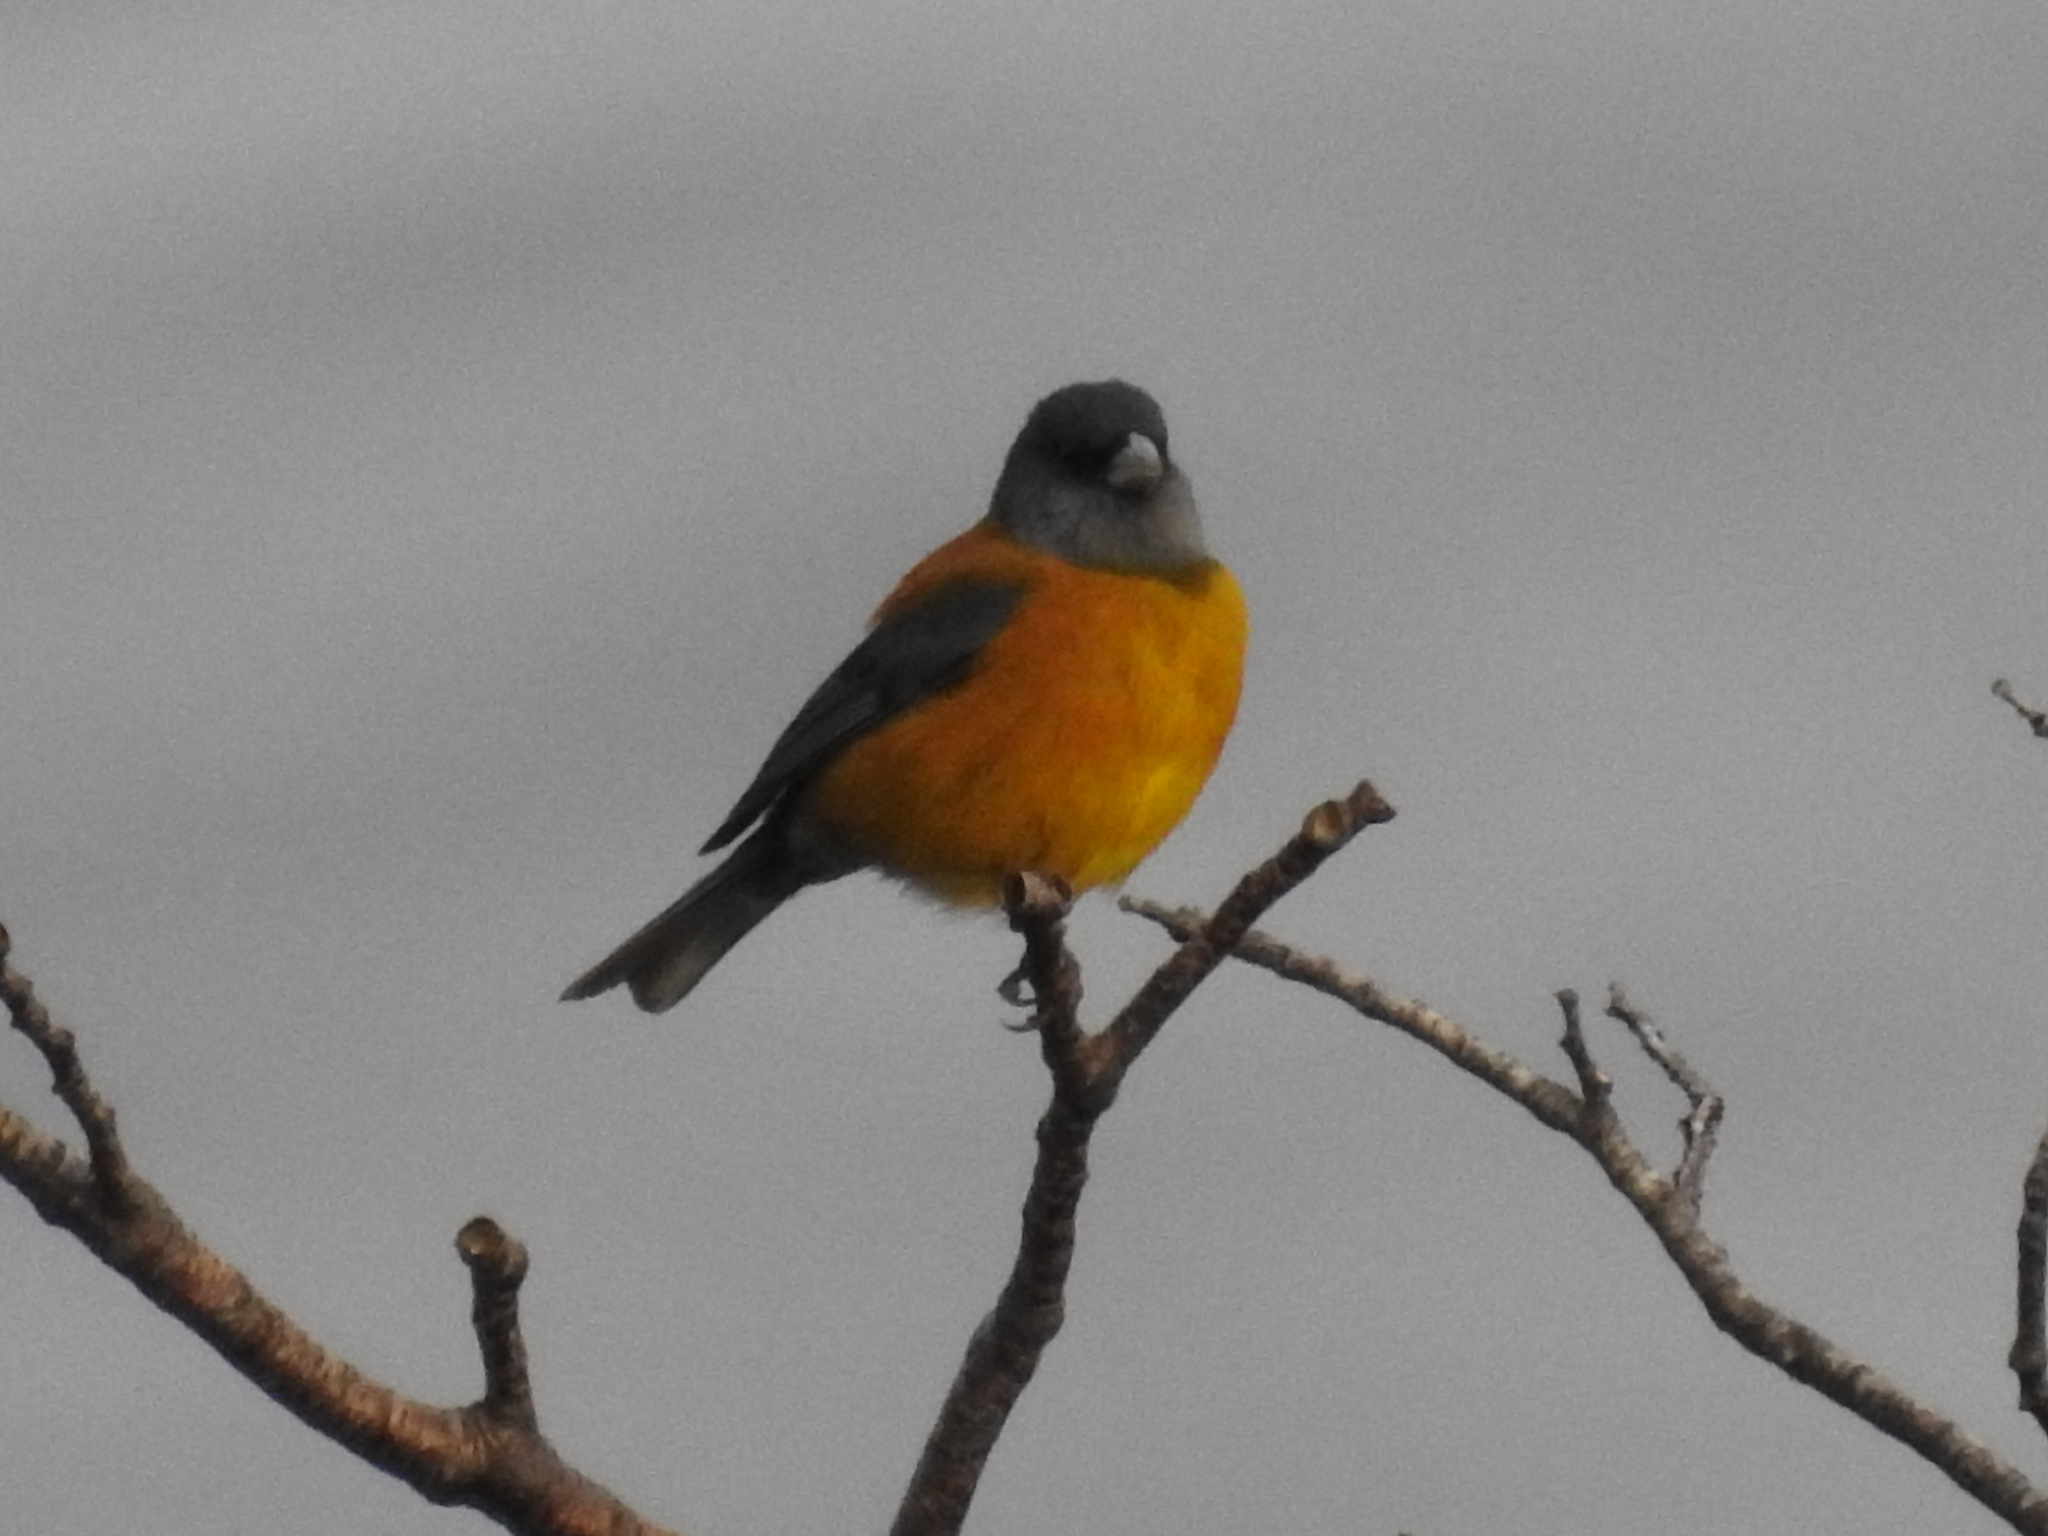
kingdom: Animalia
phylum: Chordata
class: Aves
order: Passeriformes
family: Thraupidae
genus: Phrygilus
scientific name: Phrygilus patagonicus
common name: Patagonian sierra finch
